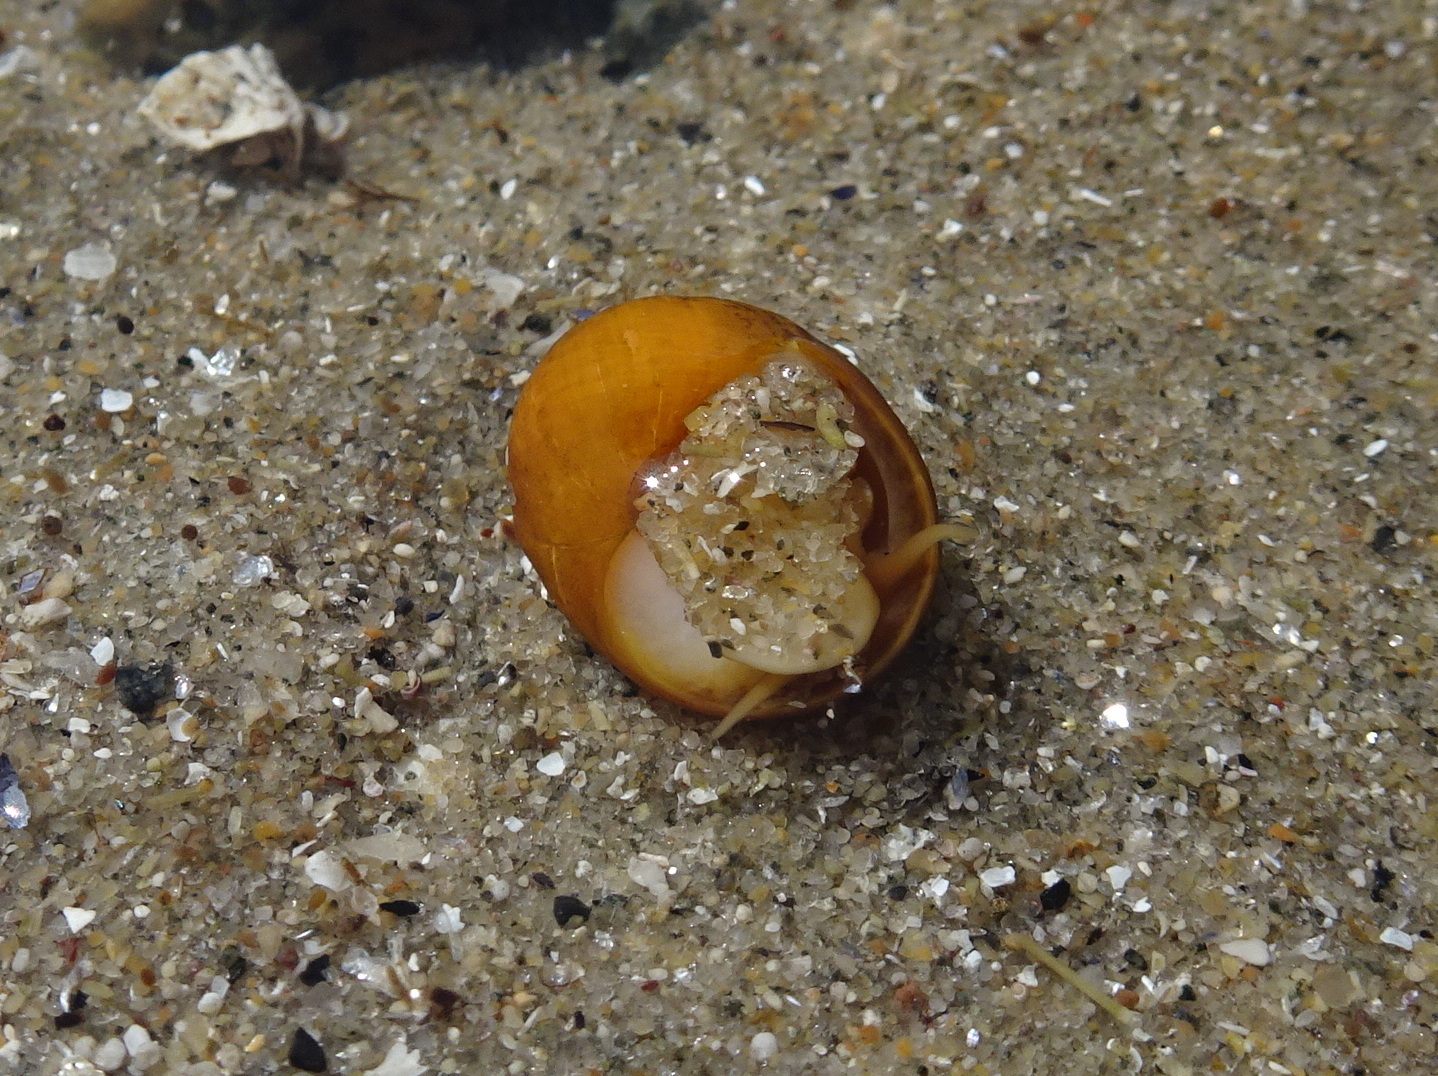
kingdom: Animalia
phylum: Mollusca
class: Gastropoda
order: Littorinimorpha
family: Littorinidae
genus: Littorina
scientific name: Littorina obtusata
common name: Flat periwinkle
